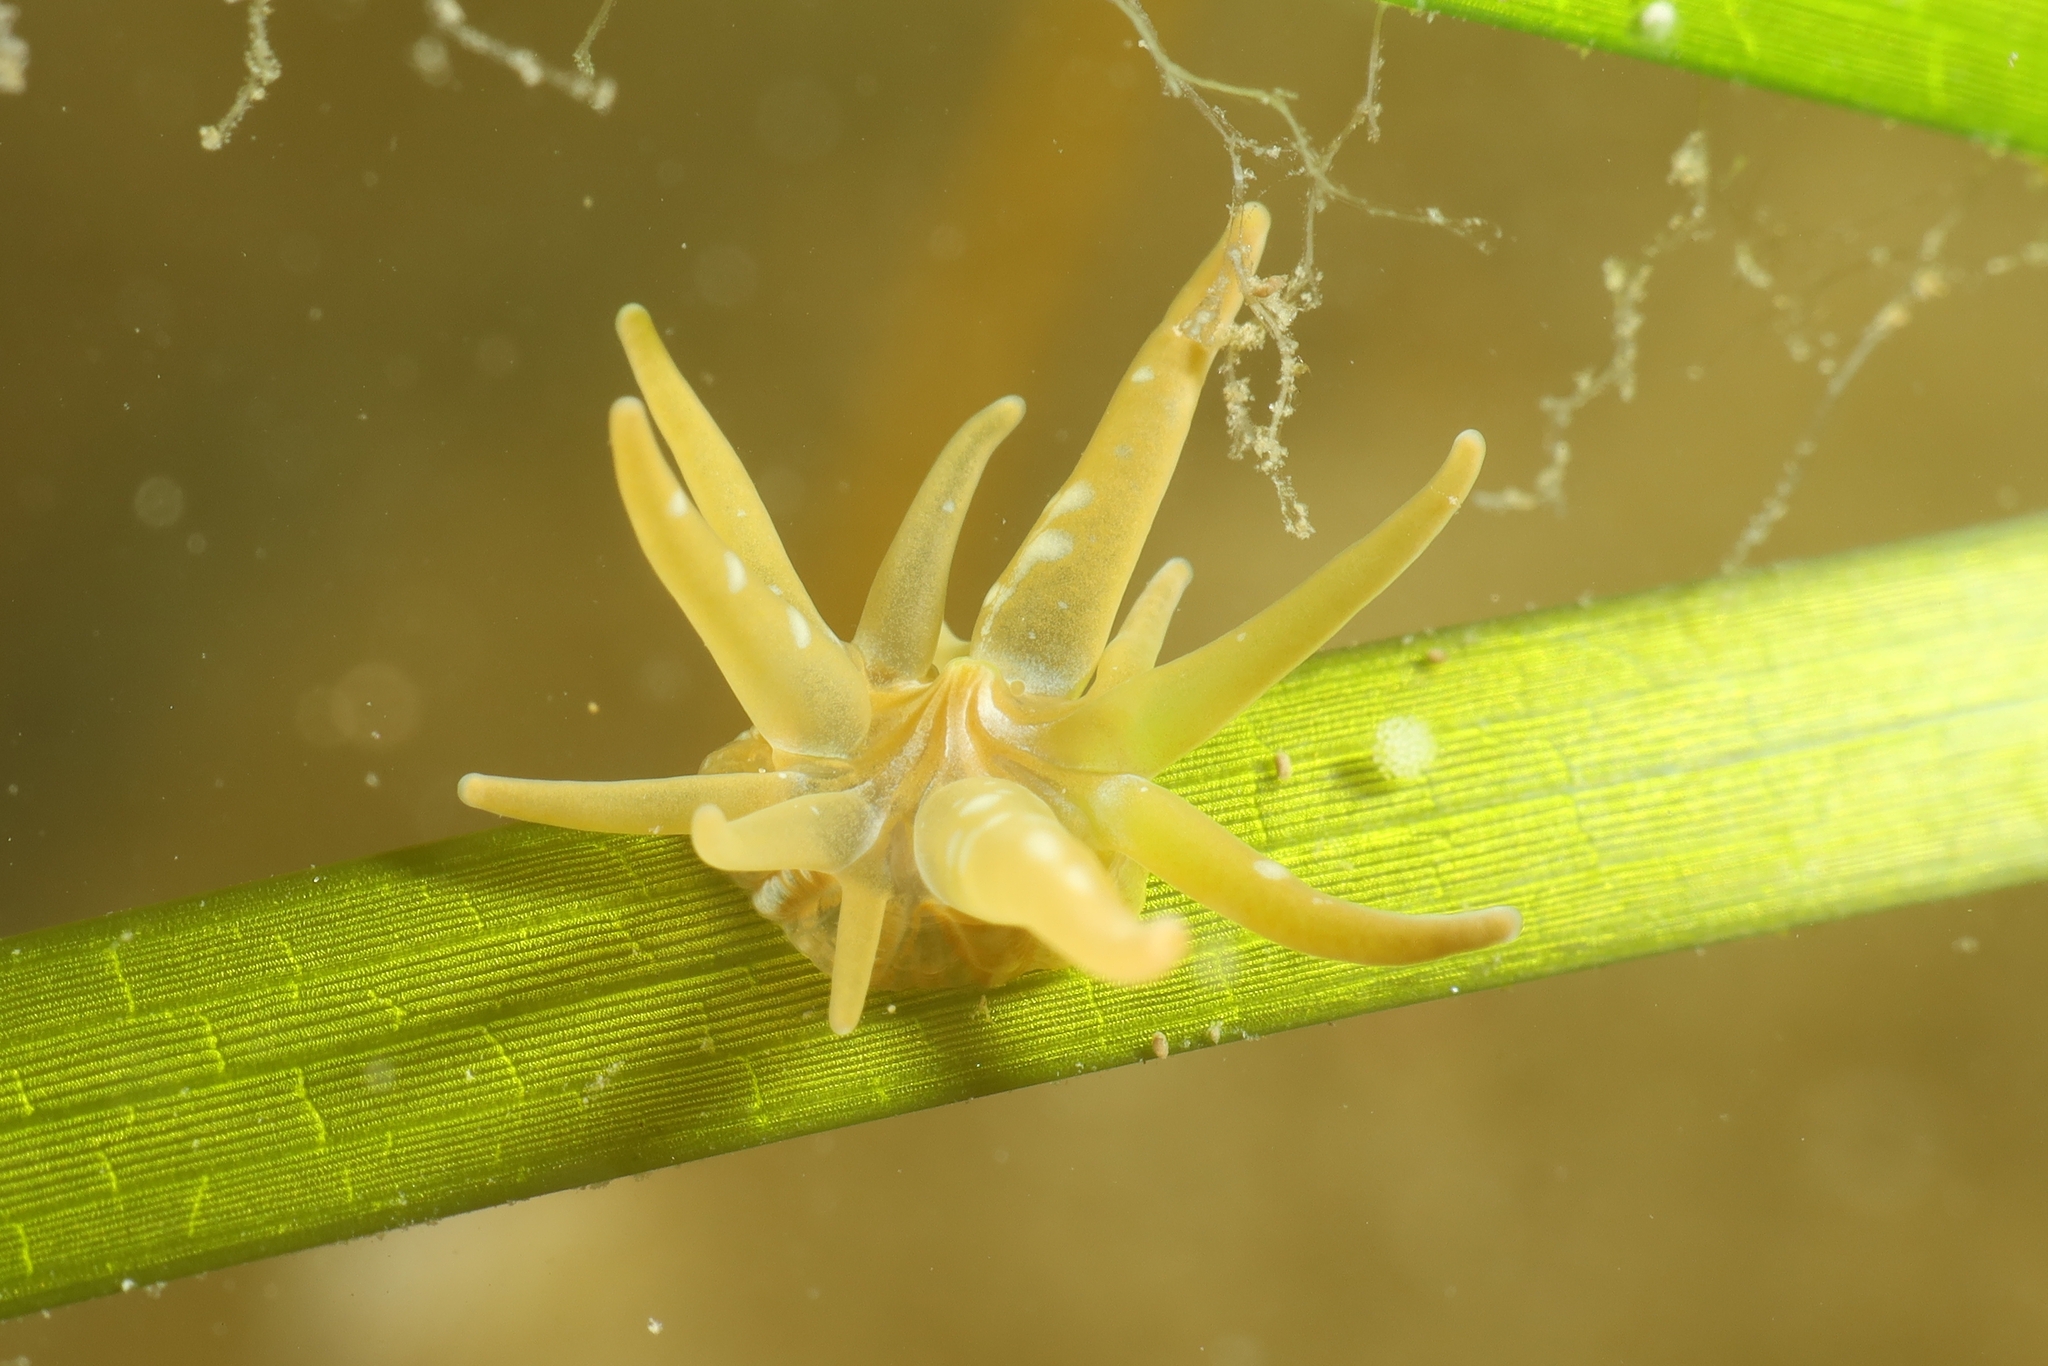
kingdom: Animalia
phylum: Cnidaria
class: Anthozoa
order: Actiniaria
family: Actiniidae
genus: Paranemonia
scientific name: Paranemonia cinerea
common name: Grass crack anemone
